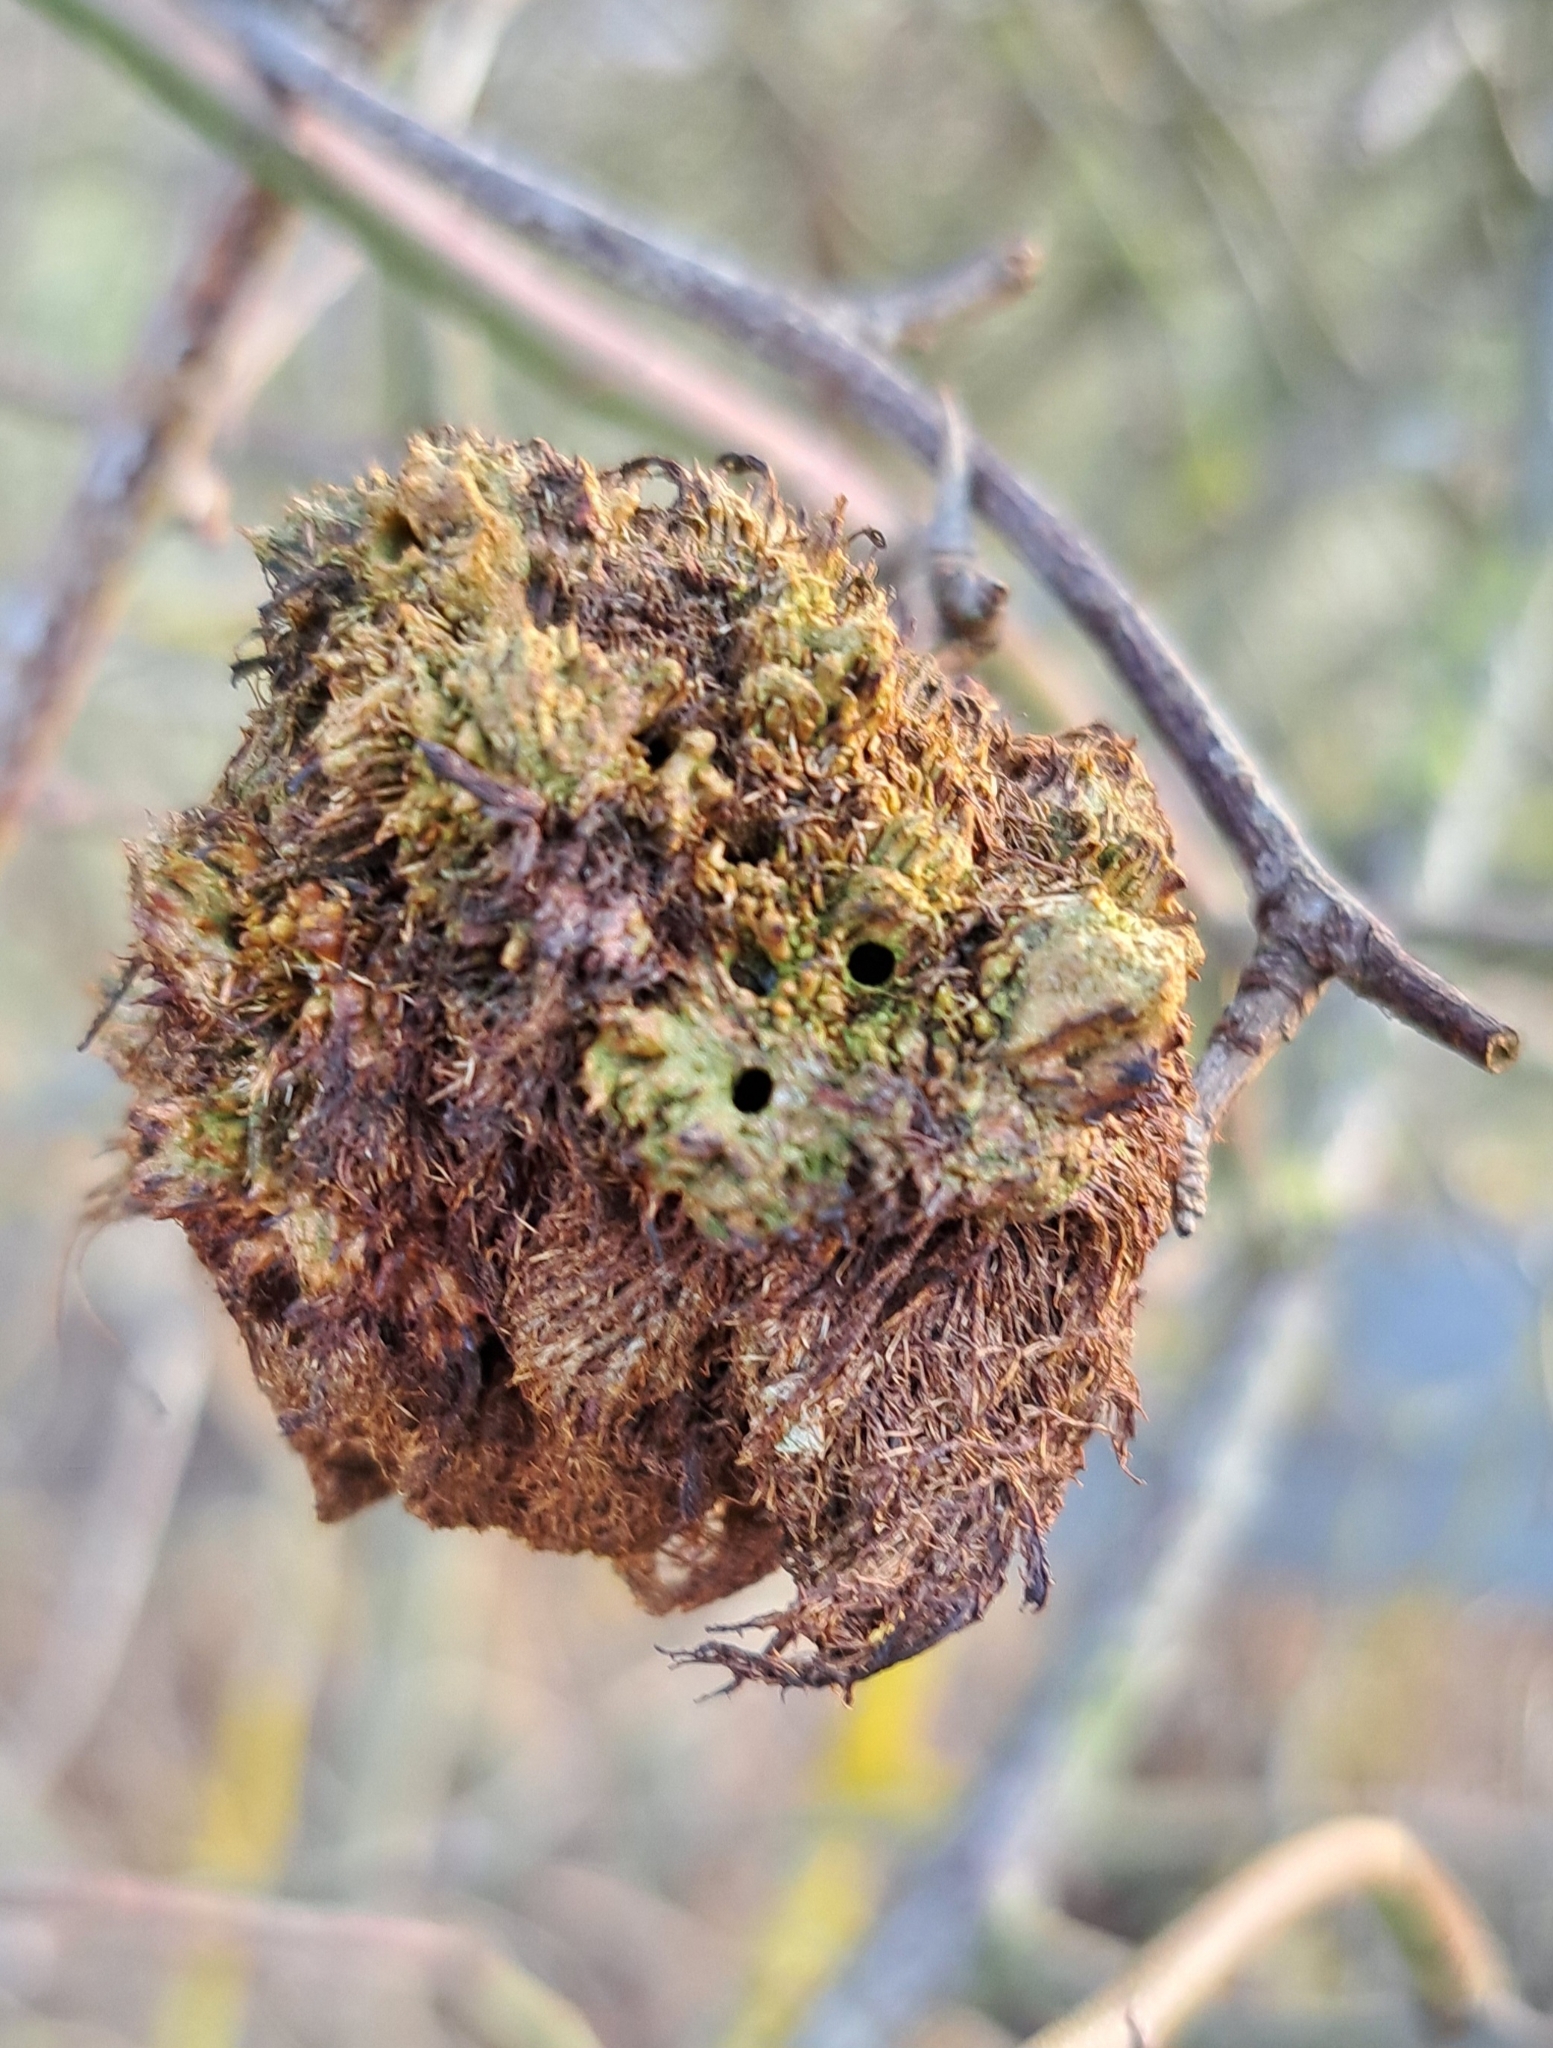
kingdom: Animalia
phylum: Arthropoda
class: Insecta
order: Hymenoptera
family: Cynipidae
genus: Diplolepis
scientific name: Diplolepis rosae
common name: Bedeguar gall
